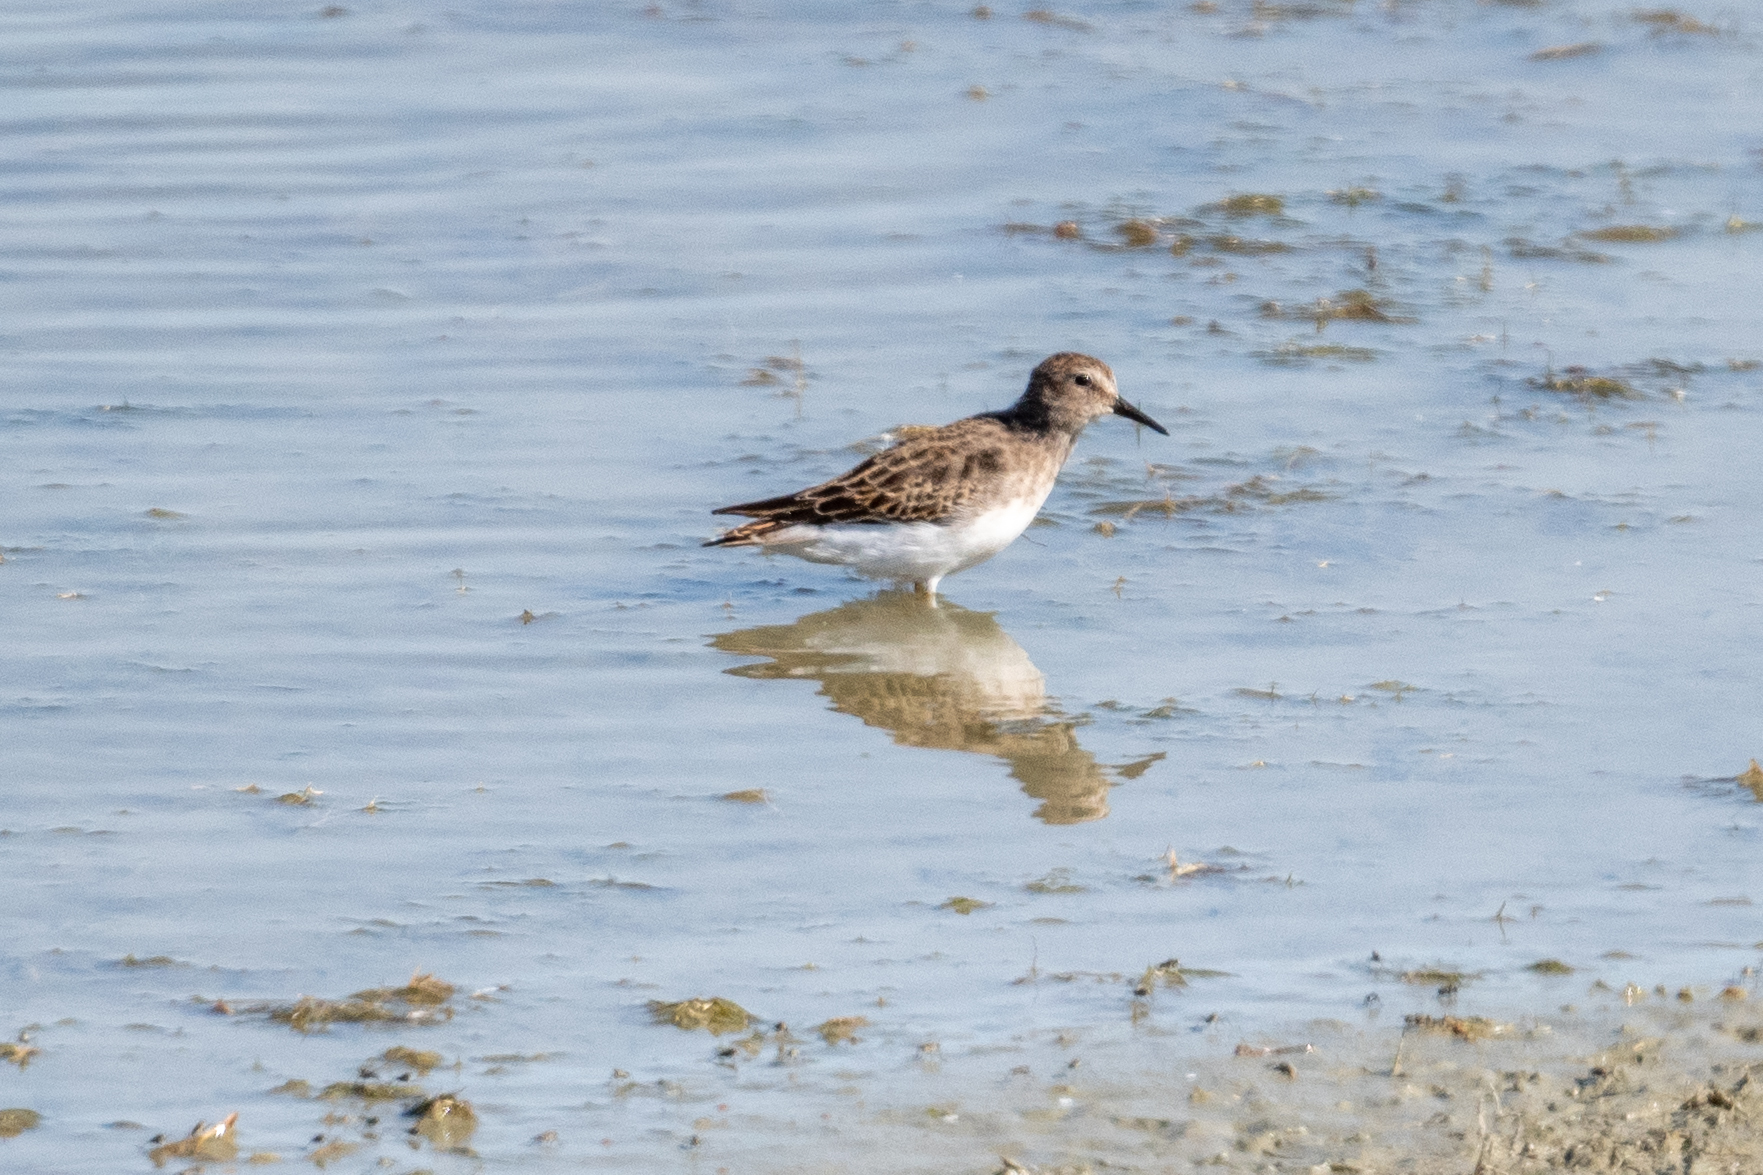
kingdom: Animalia
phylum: Chordata
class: Aves
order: Charadriiformes
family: Scolopacidae
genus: Calidris
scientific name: Calidris minutilla
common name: Least sandpiper
